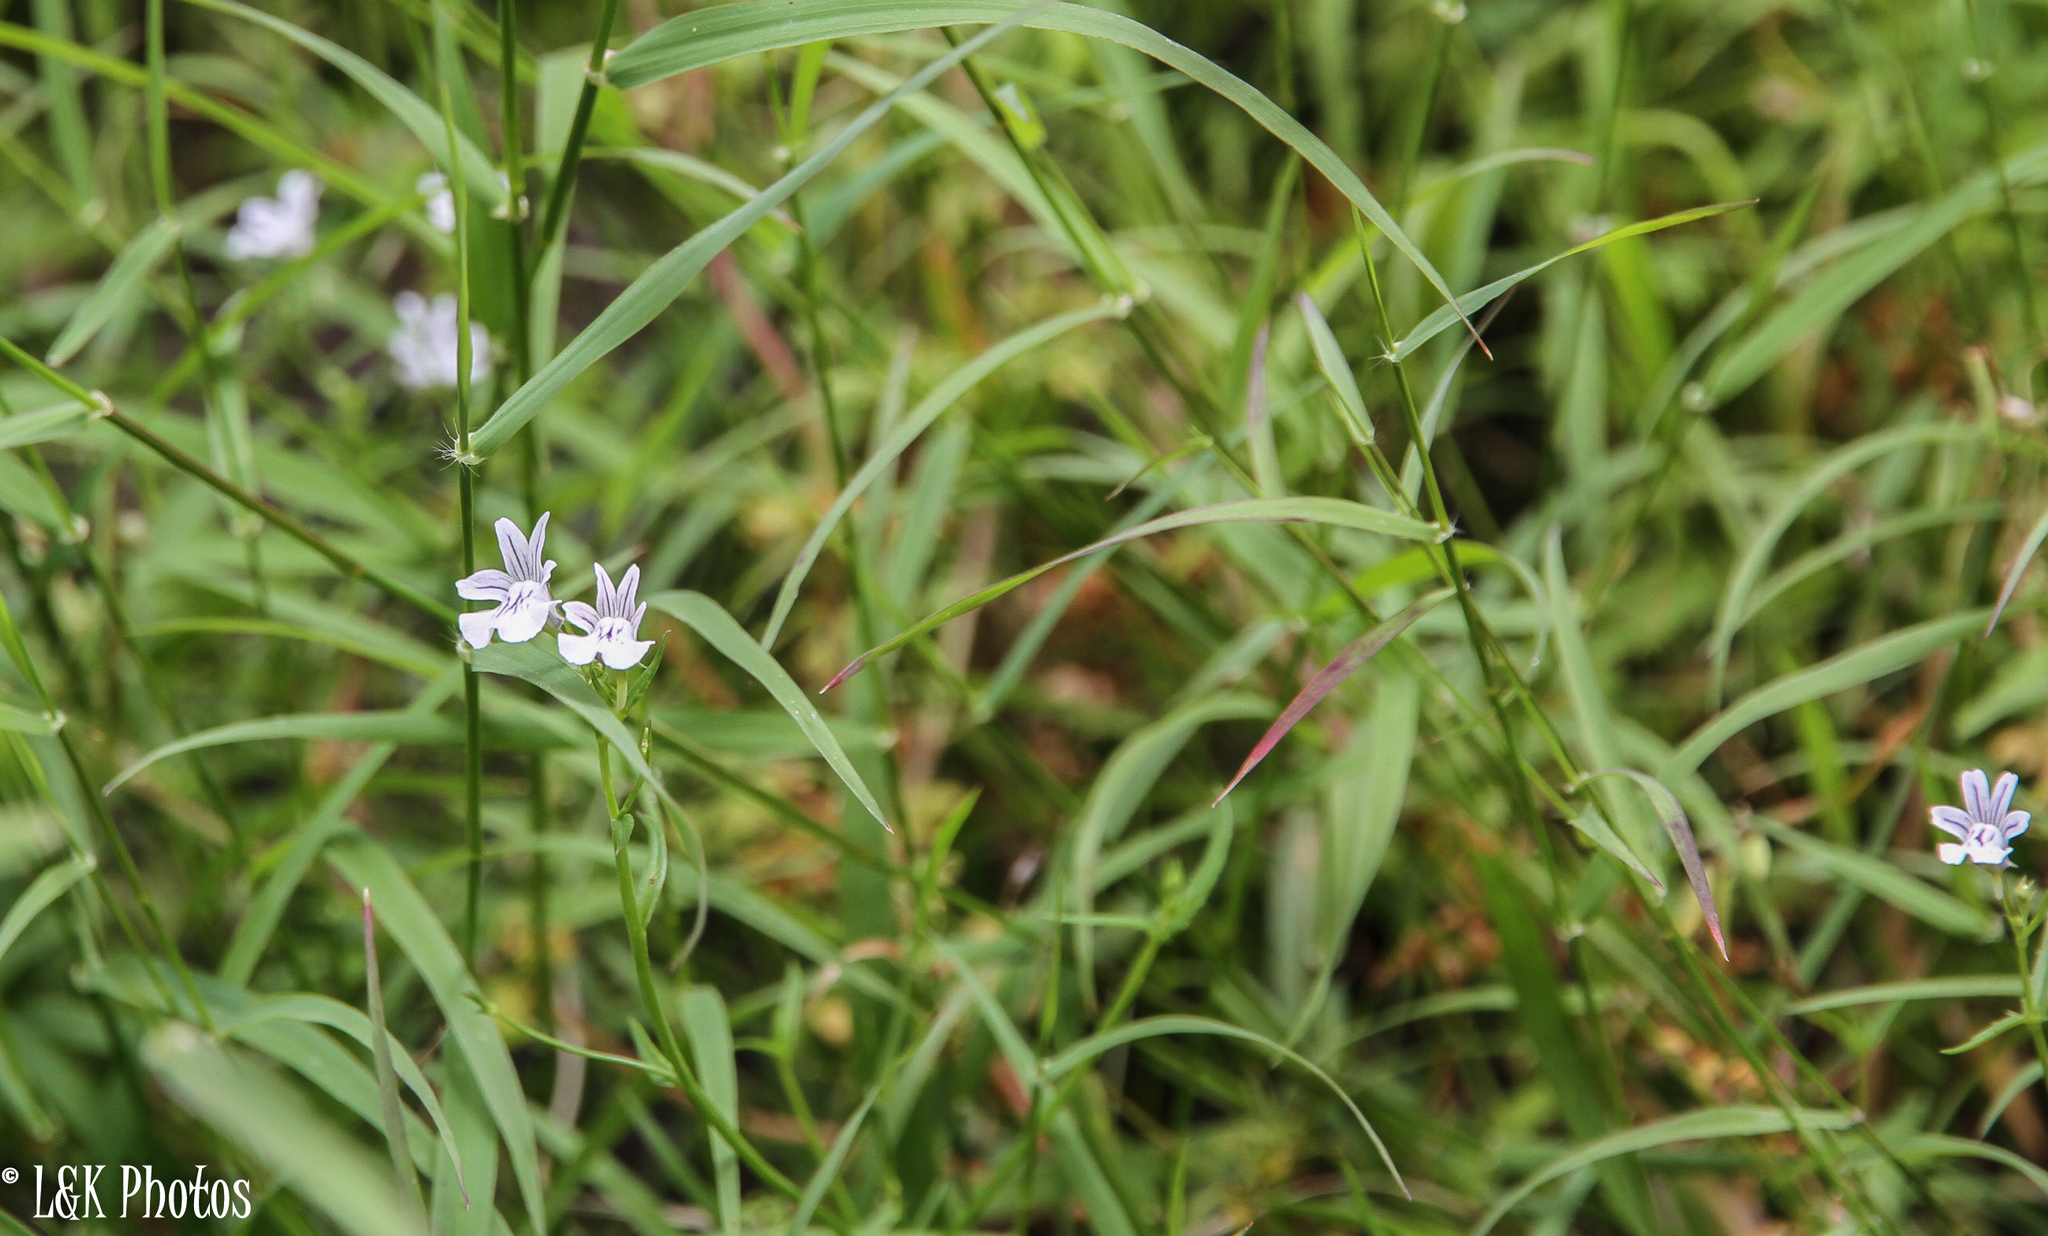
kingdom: Plantae
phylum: Tracheophyta
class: Magnoliopsida
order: Lamiales
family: Scrophulariaceae
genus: Nemesia
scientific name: Nemesia diffusa
